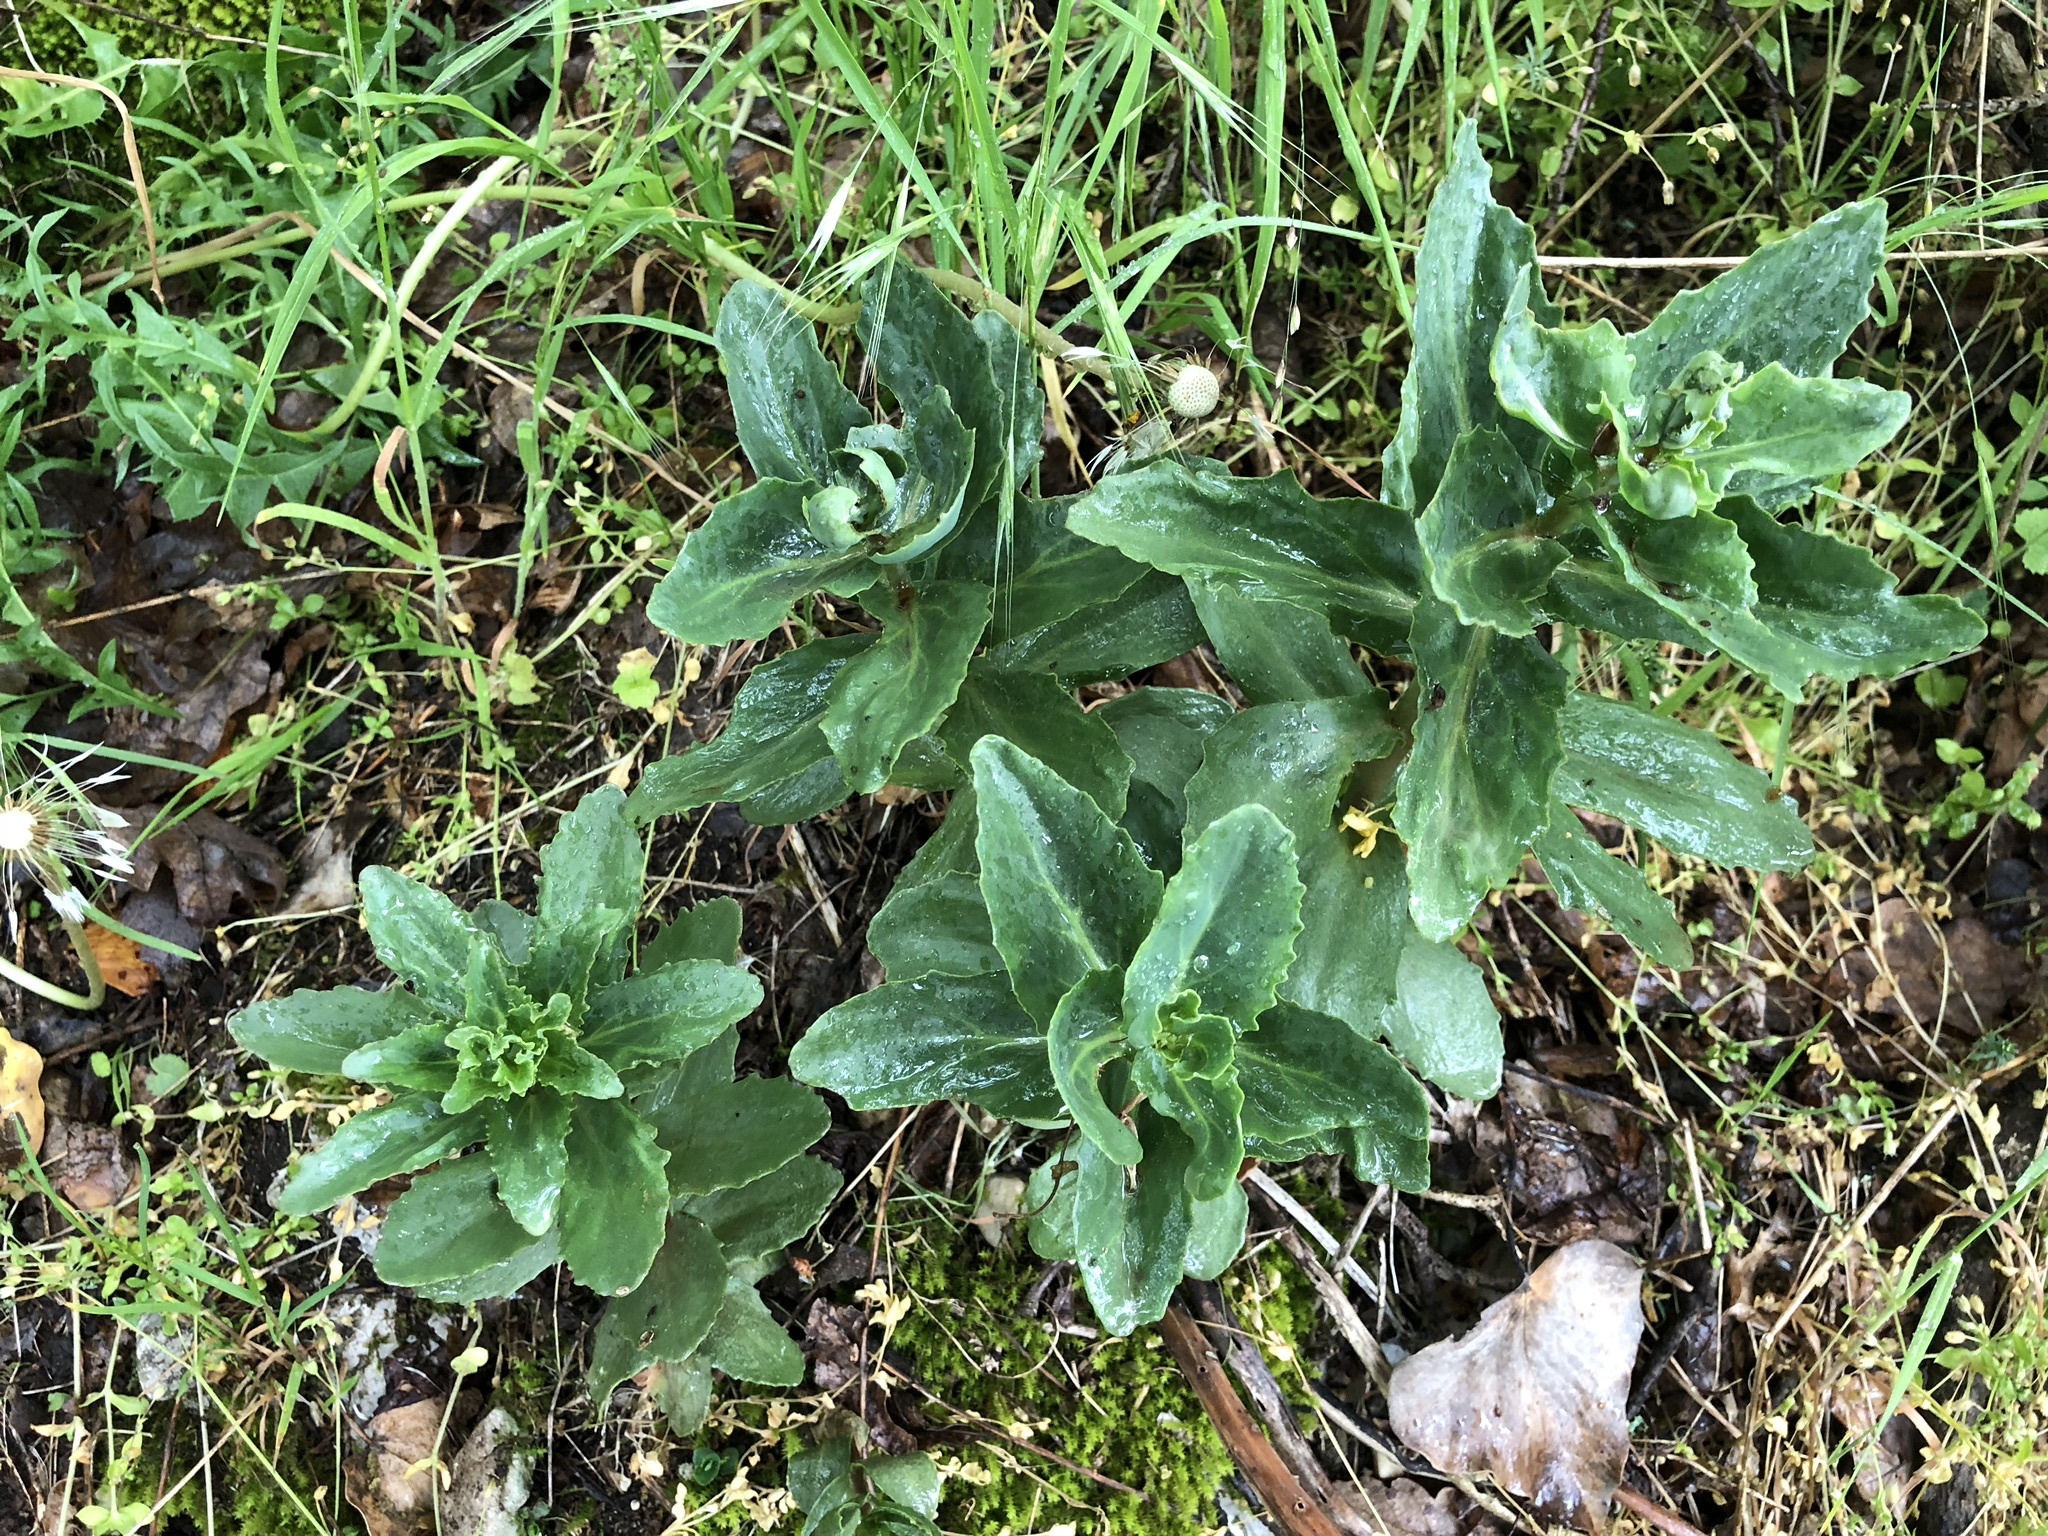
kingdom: Plantae
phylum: Tracheophyta
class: Magnoliopsida
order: Saxifragales
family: Crassulaceae
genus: Hylotelephium
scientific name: Hylotelephium telephium
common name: Live-forever
